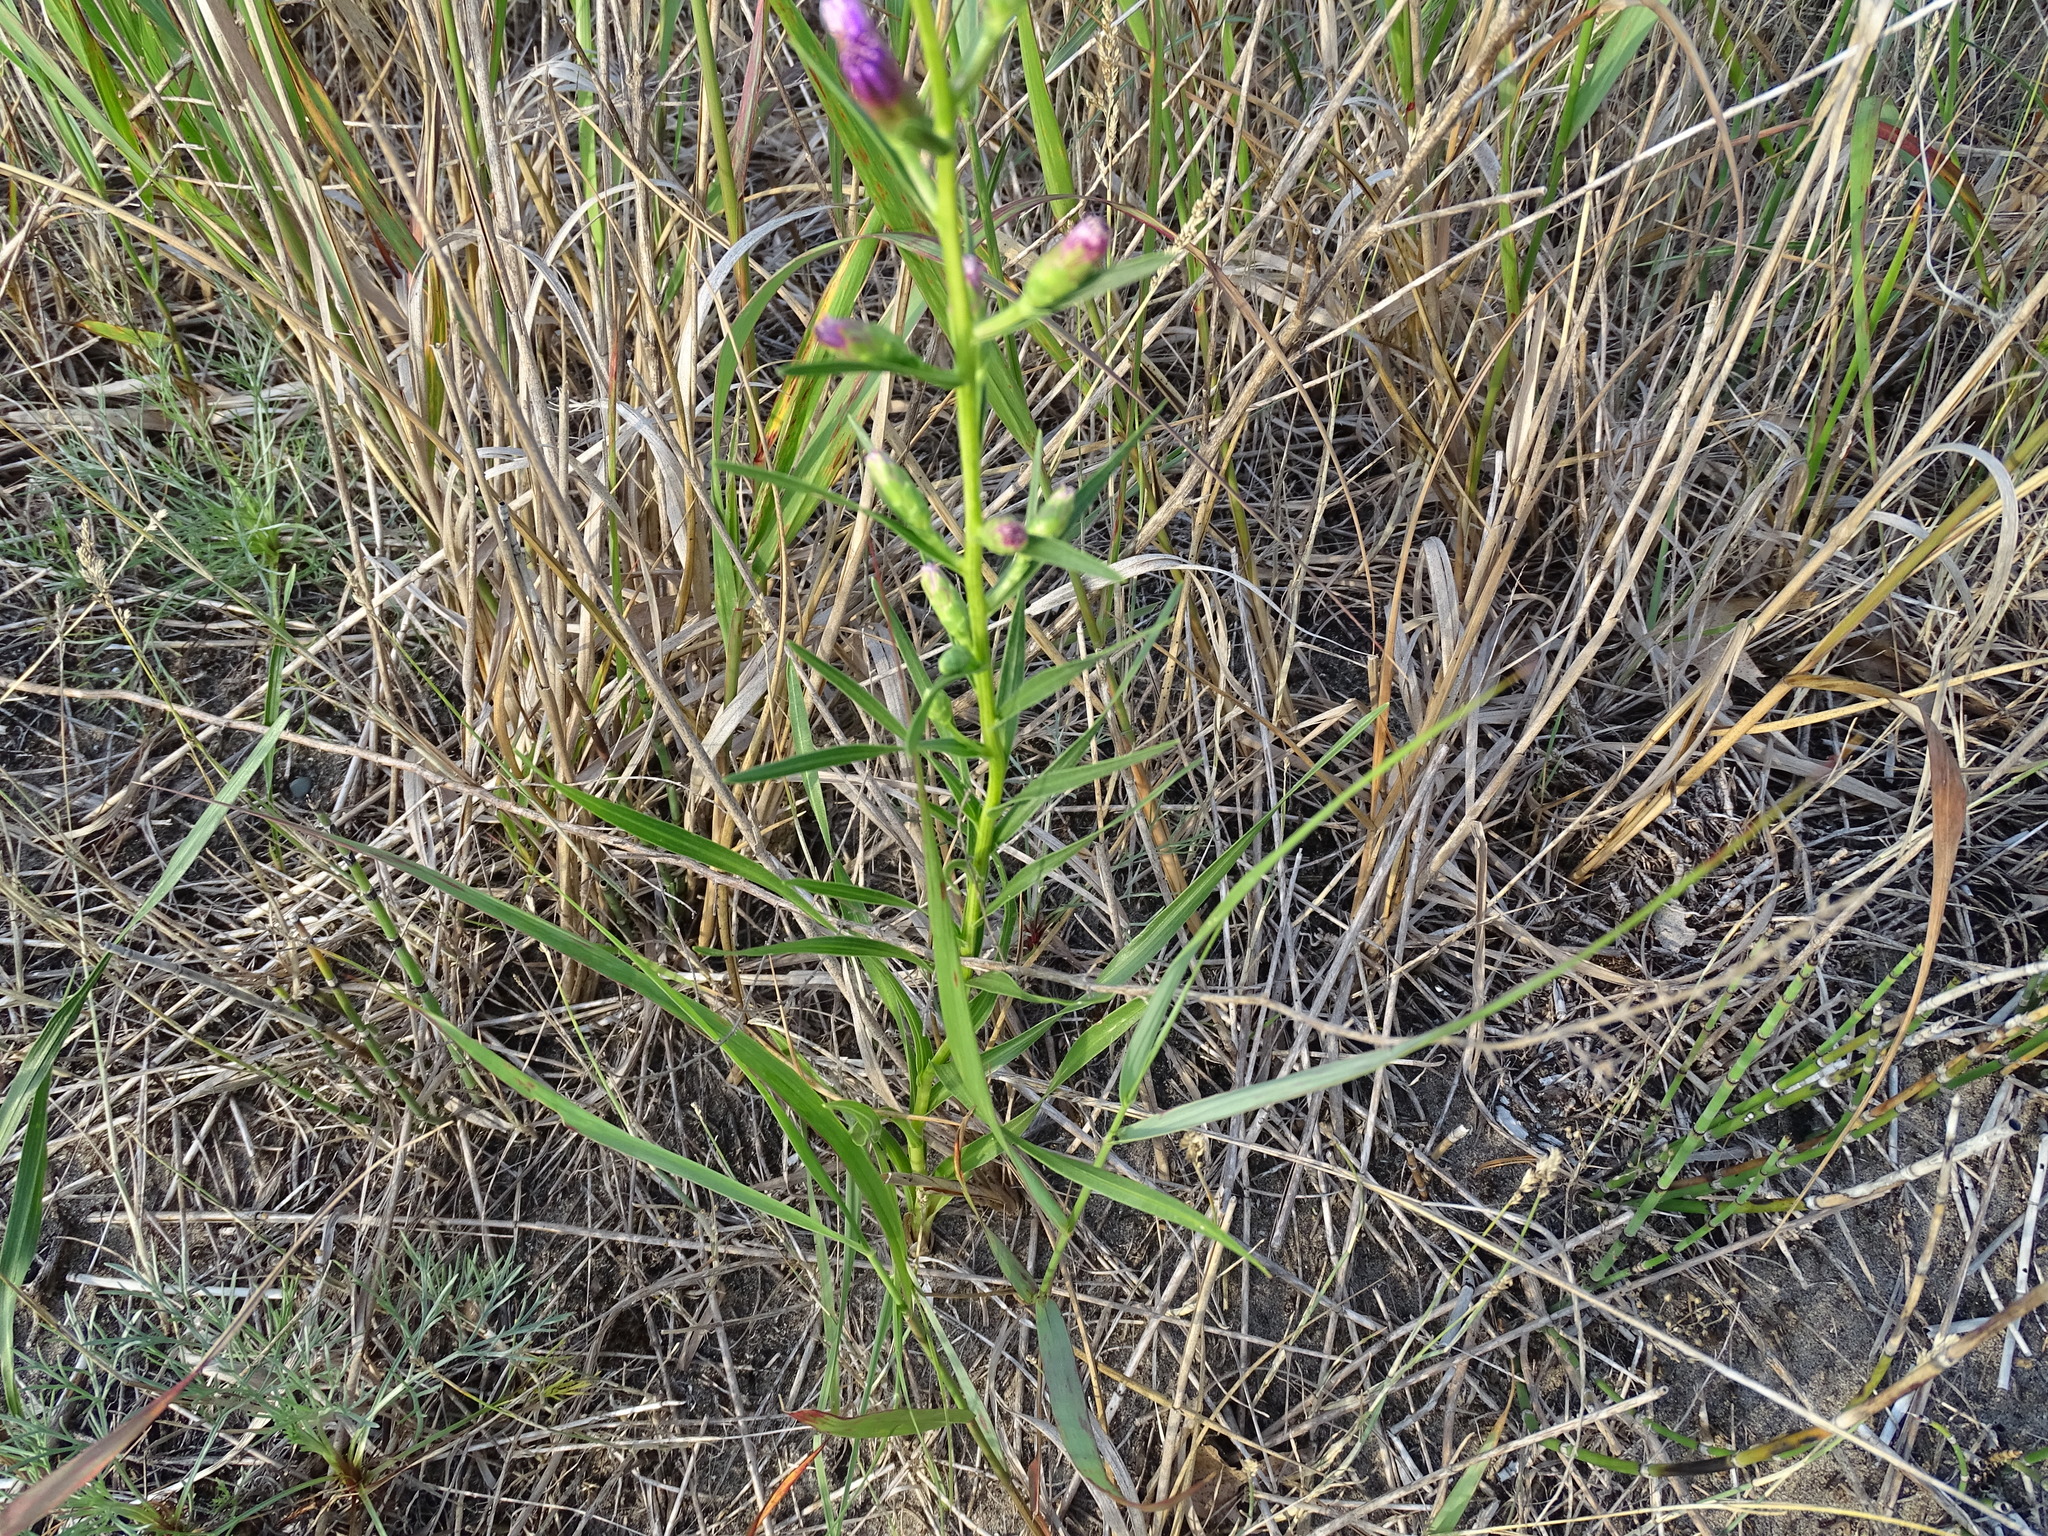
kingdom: Plantae
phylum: Tracheophyta
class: Magnoliopsida
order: Asterales
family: Asteraceae
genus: Liatris
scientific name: Liatris cylindracea
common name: Few-head blazingstar
